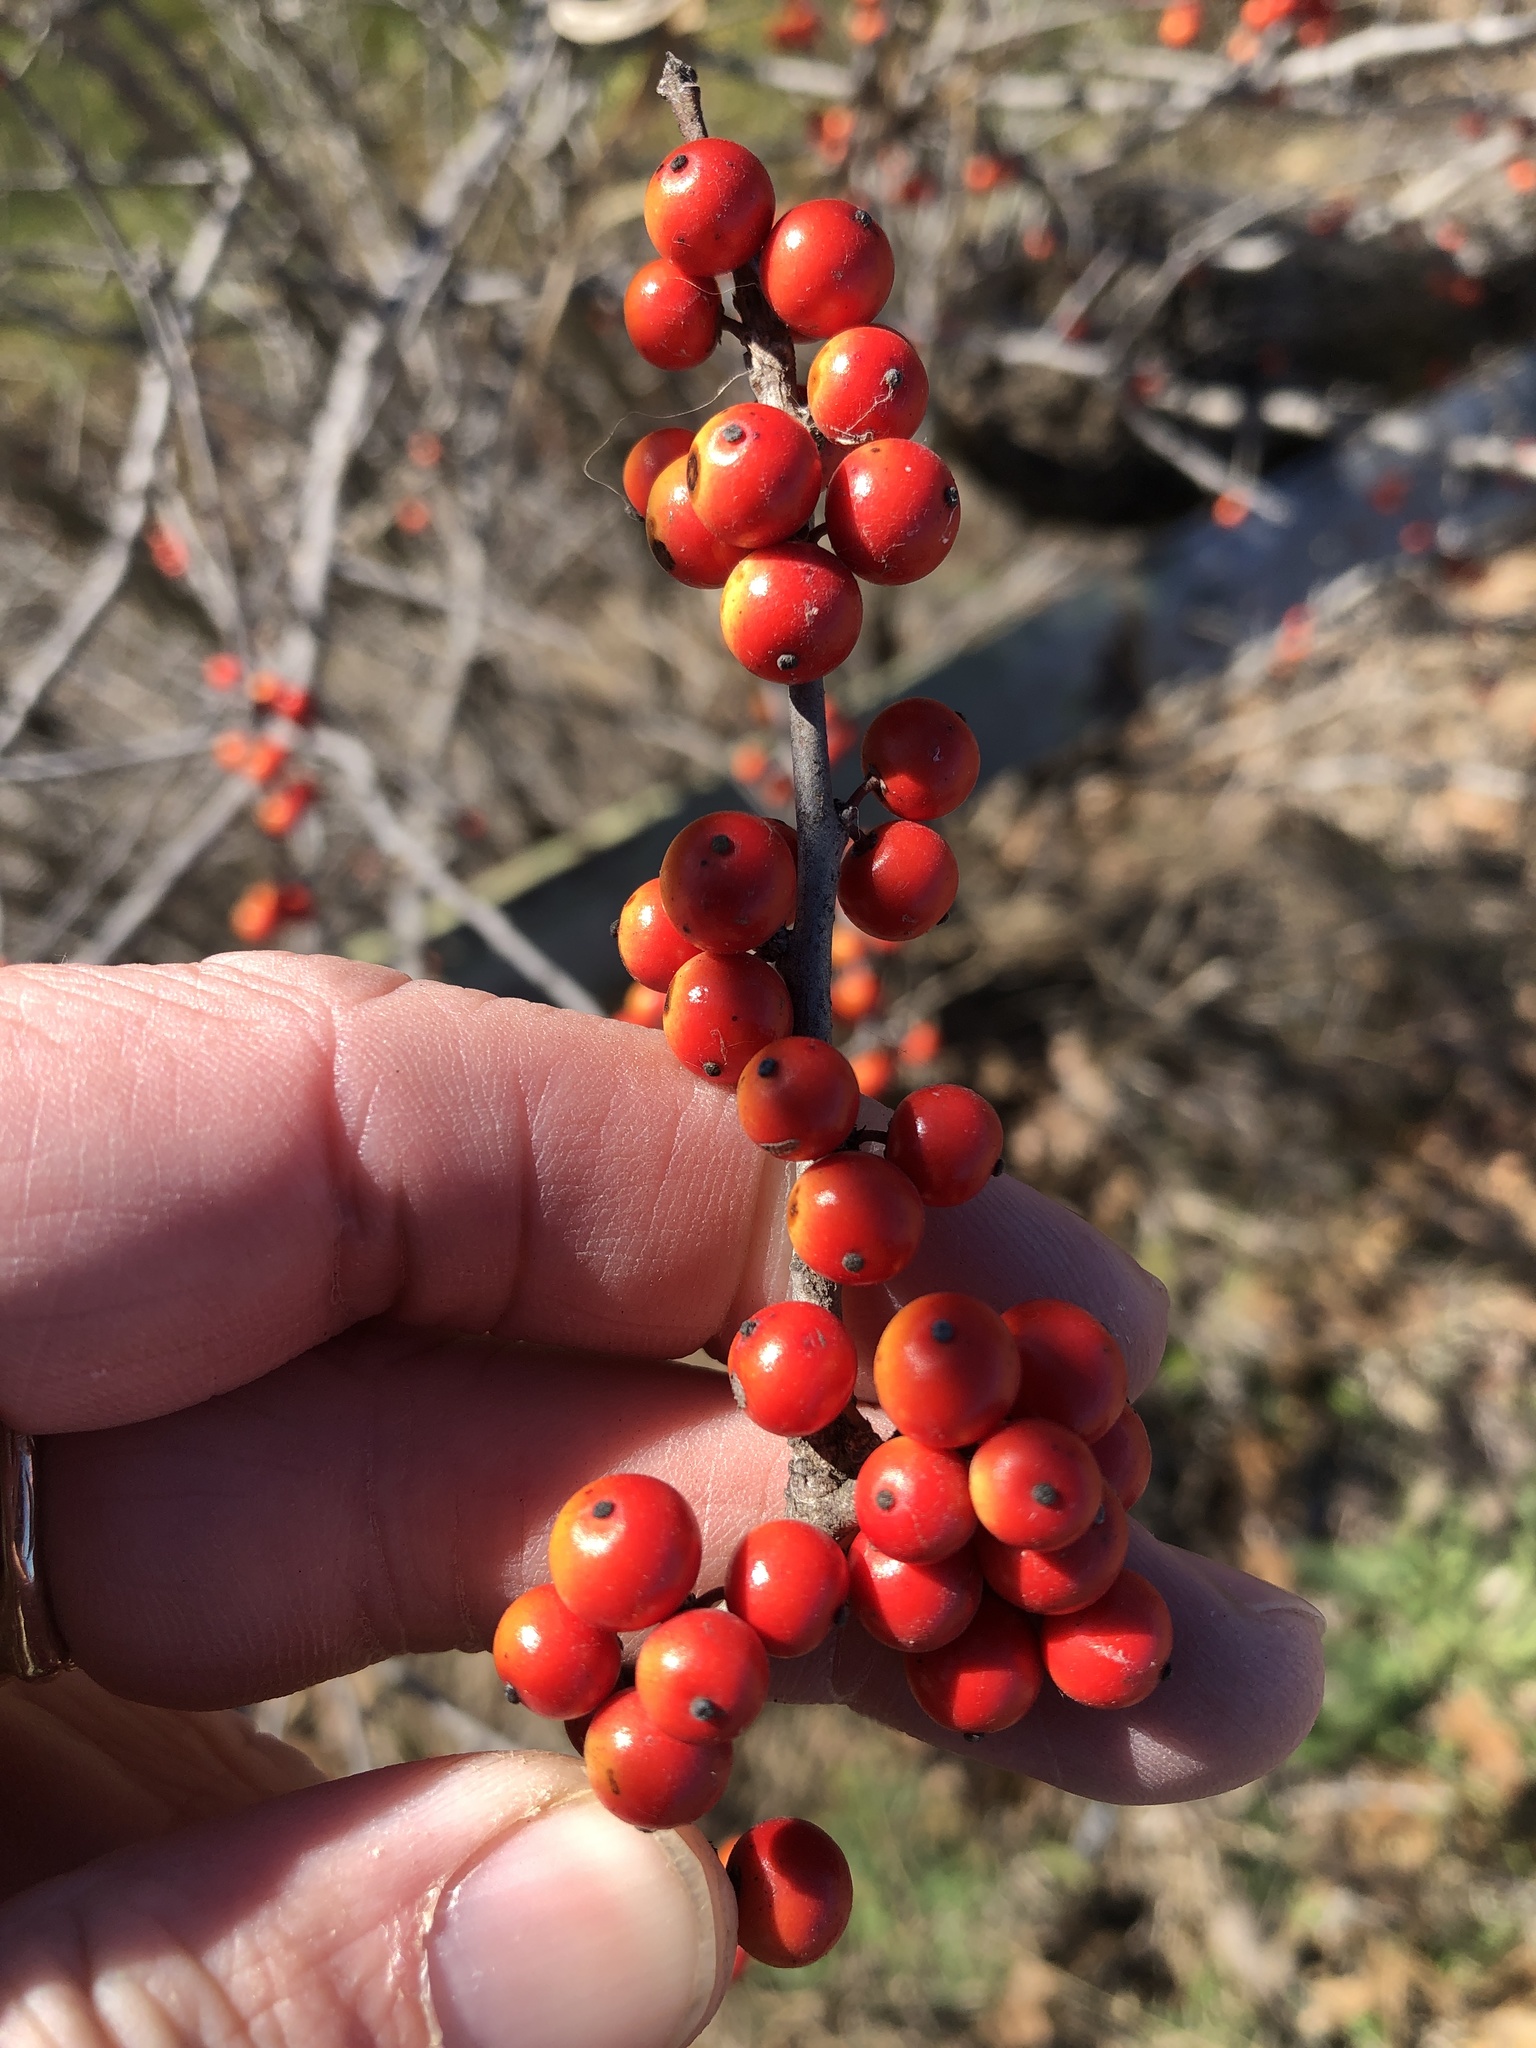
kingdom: Plantae
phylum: Tracheophyta
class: Magnoliopsida
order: Aquifoliales
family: Aquifoliaceae
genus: Ilex
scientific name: Ilex decidua
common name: Possum-haw
